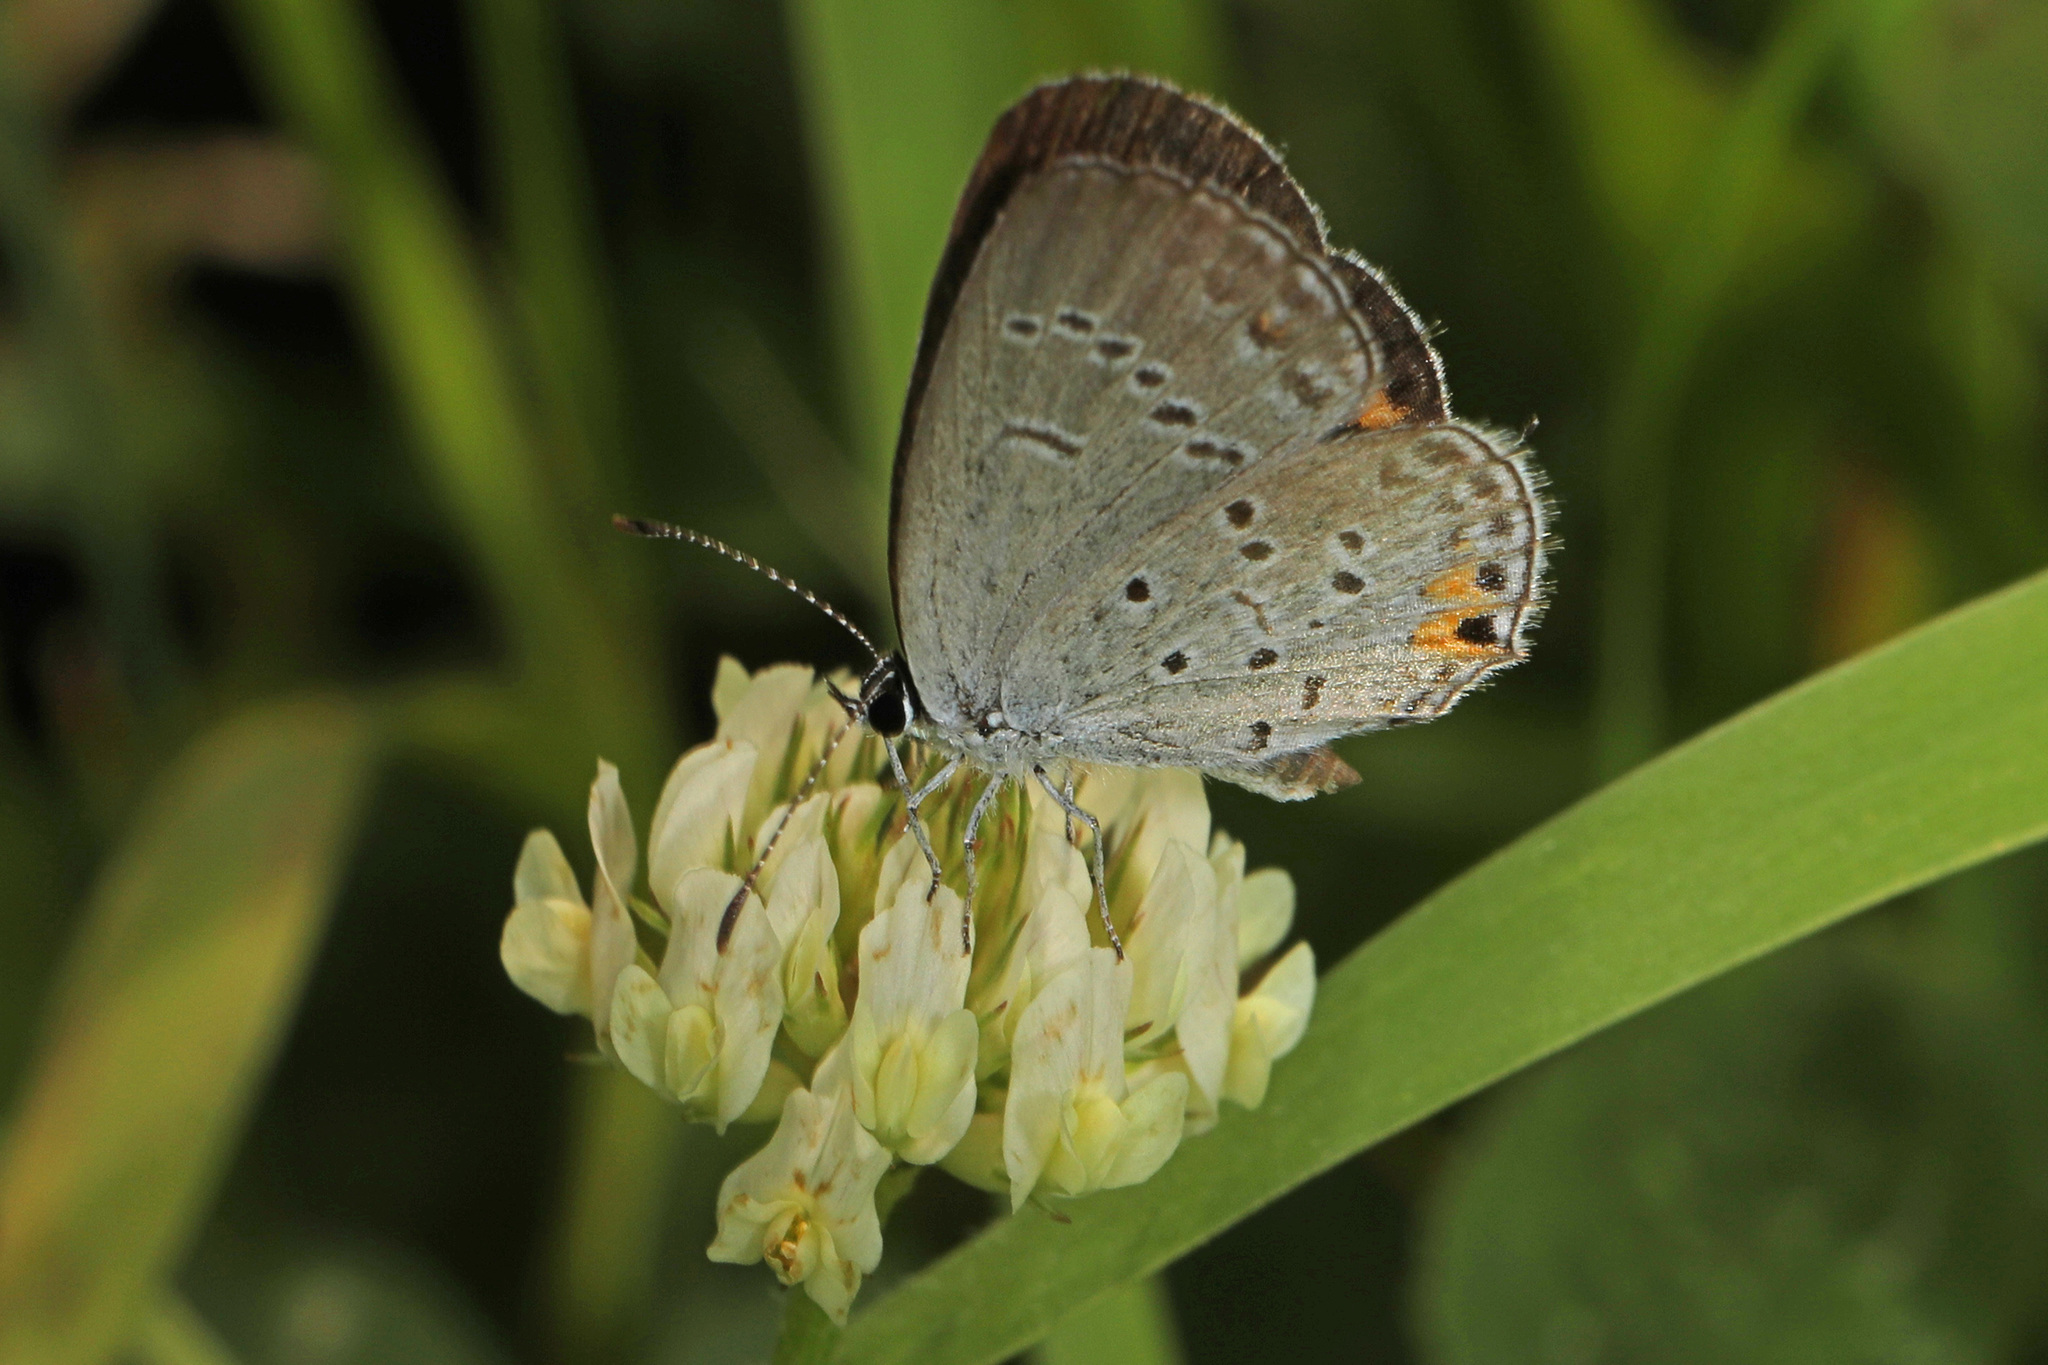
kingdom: Animalia
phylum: Arthropoda
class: Insecta
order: Lepidoptera
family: Lycaenidae
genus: Elkalyce
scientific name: Elkalyce comyntas
